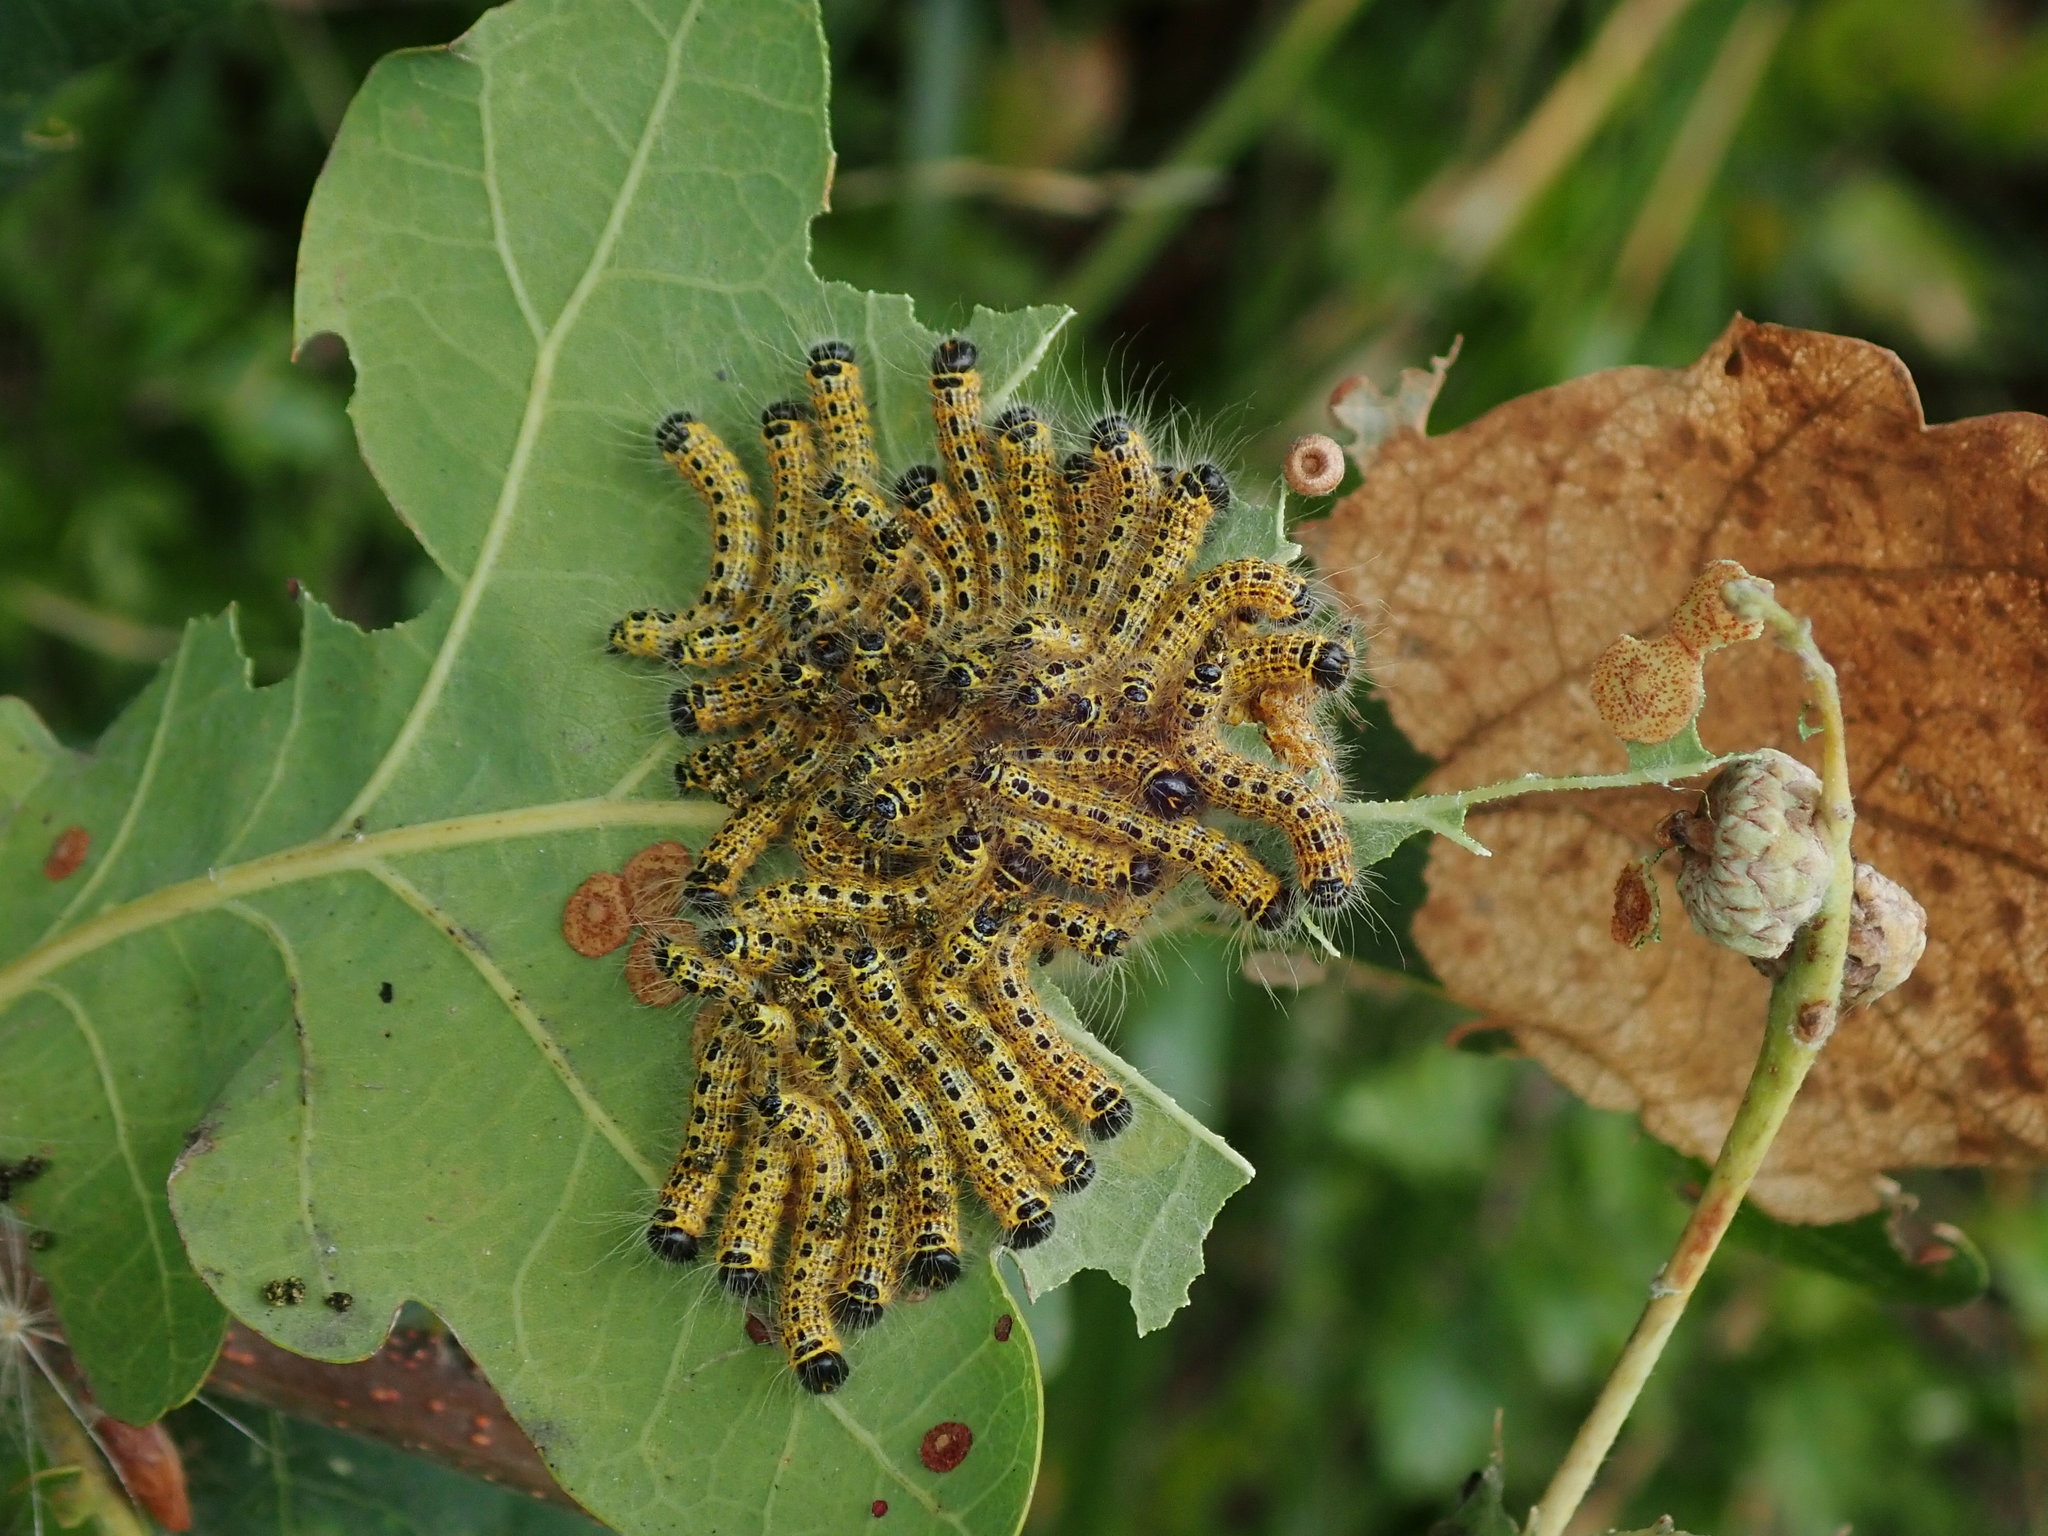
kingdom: Animalia
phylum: Arthropoda
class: Insecta
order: Lepidoptera
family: Notodontidae
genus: Phalera
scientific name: Phalera bucephala
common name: Buff-tip
